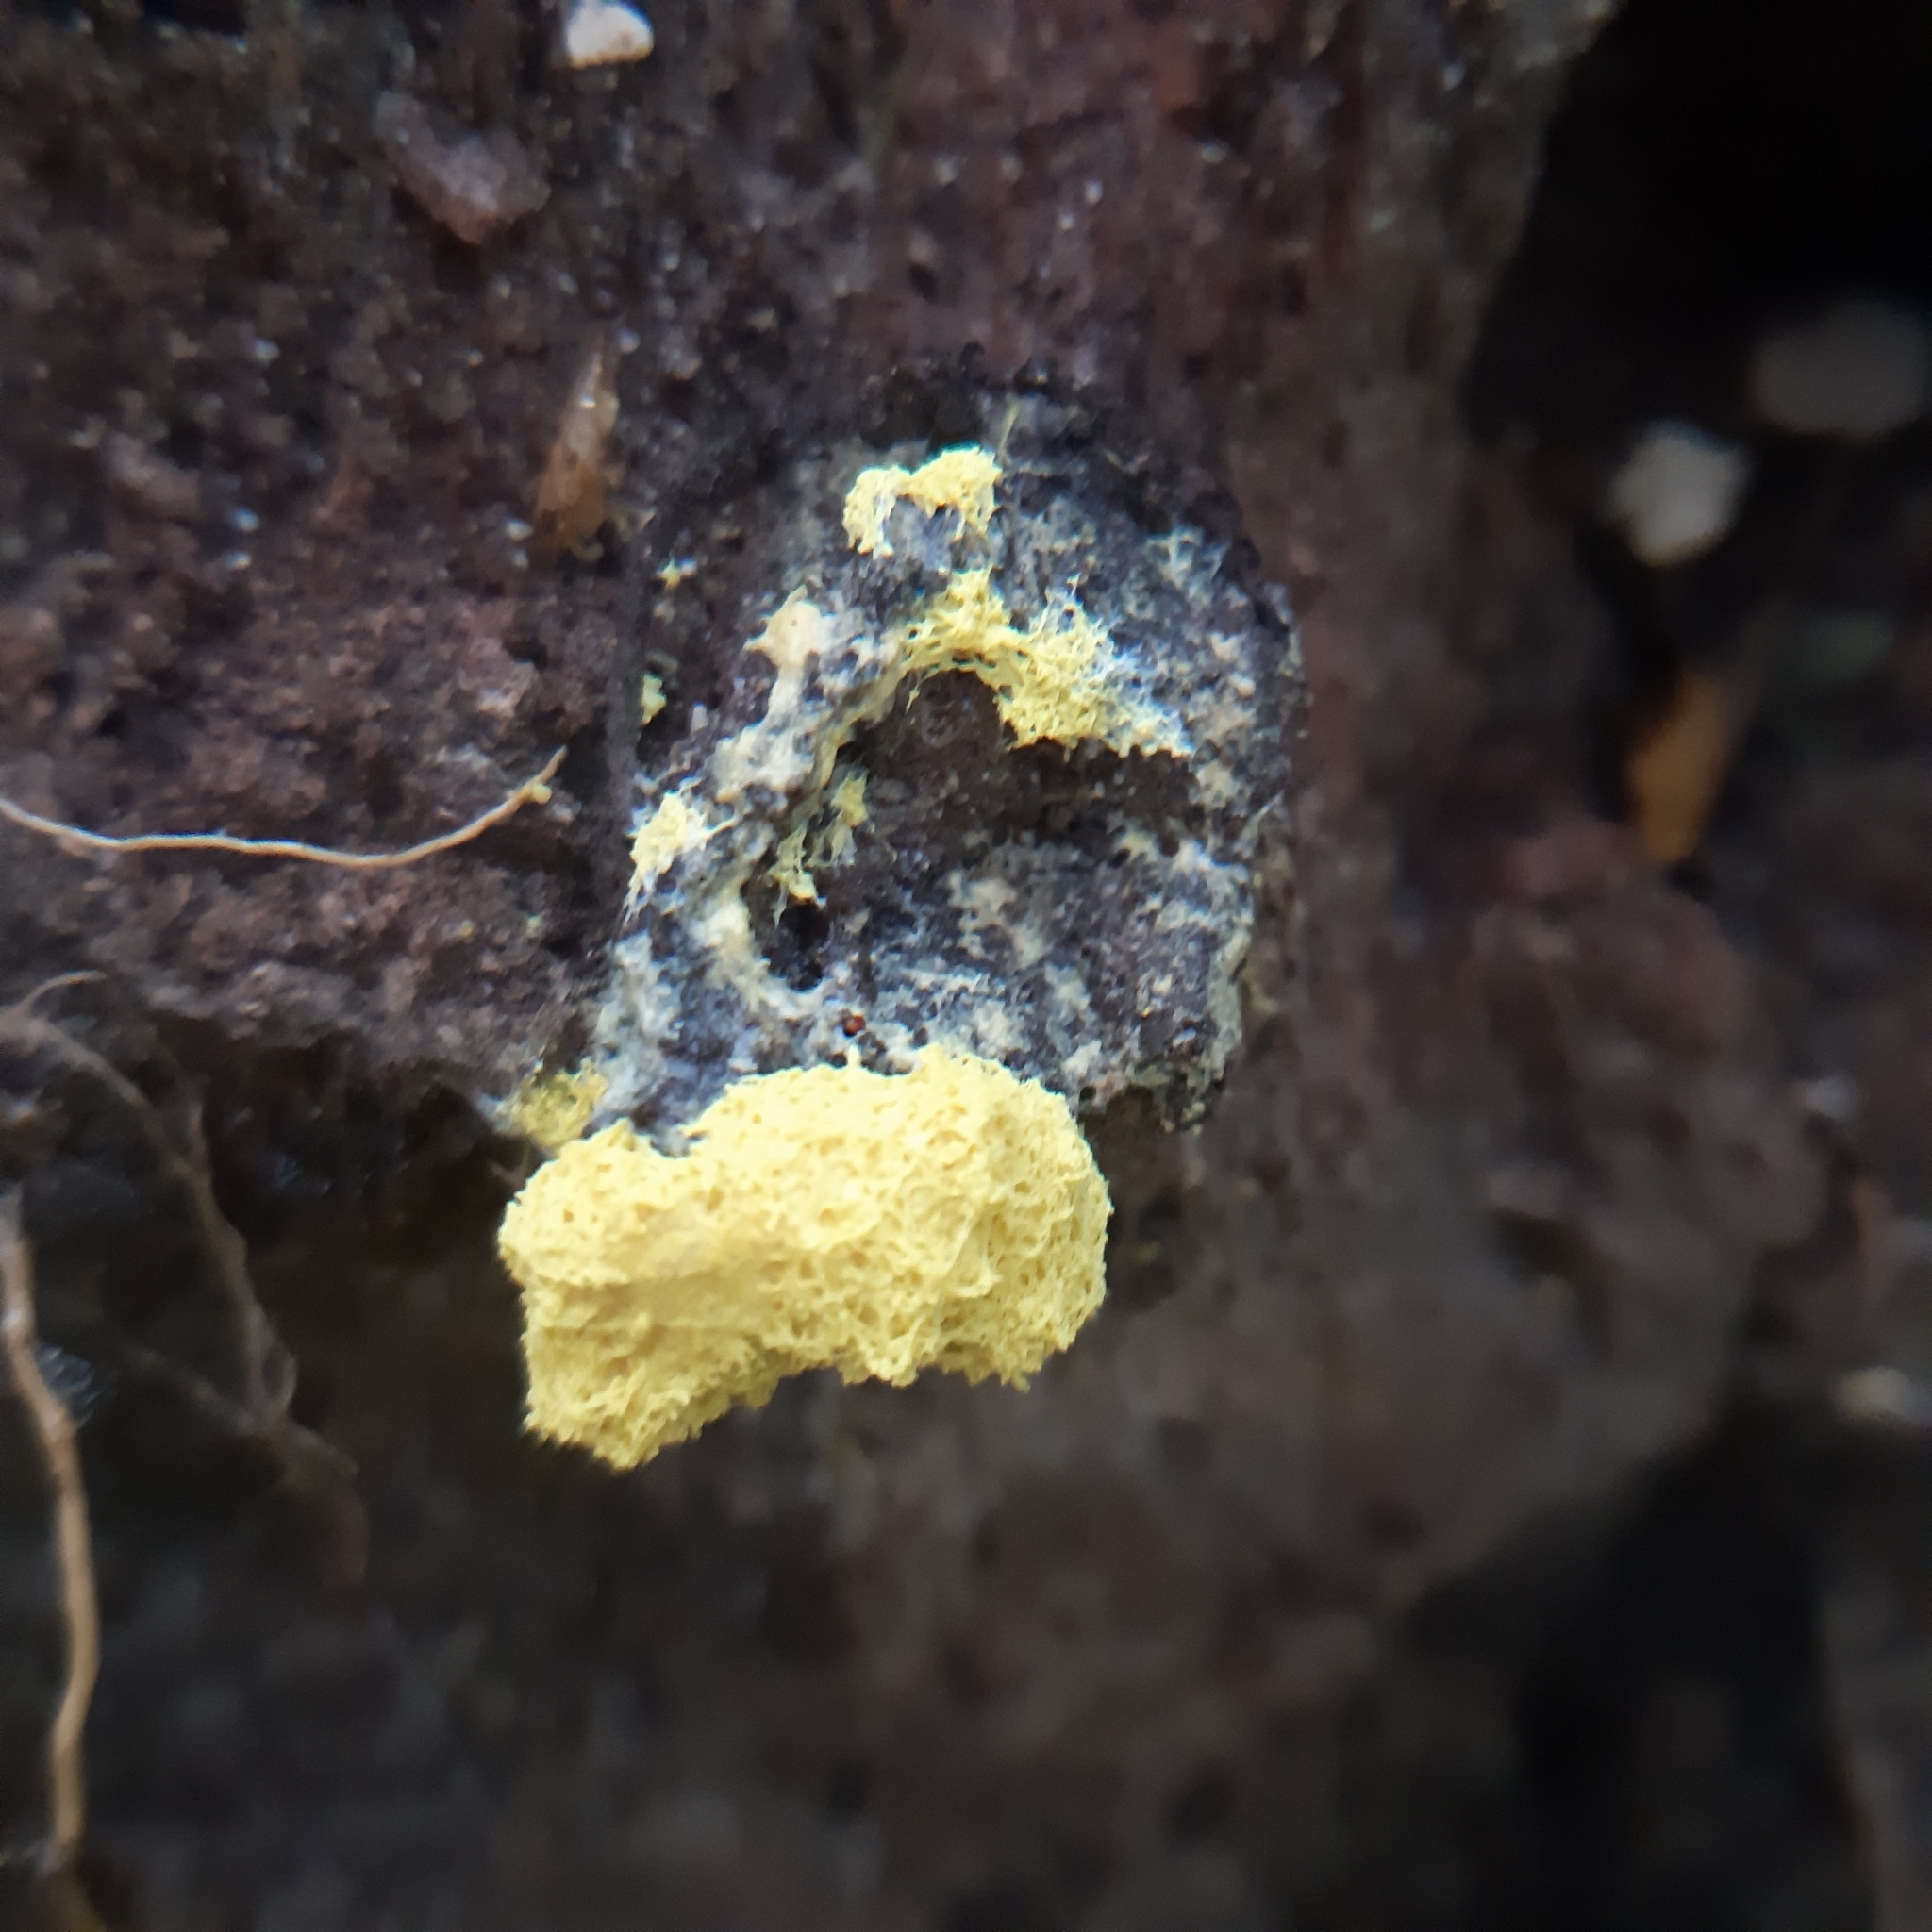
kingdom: Protozoa
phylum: Mycetozoa
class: Myxomycetes
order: Physarales
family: Physaraceae
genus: Fuligo
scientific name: Fuligo septica
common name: Dog vomit slime mold
